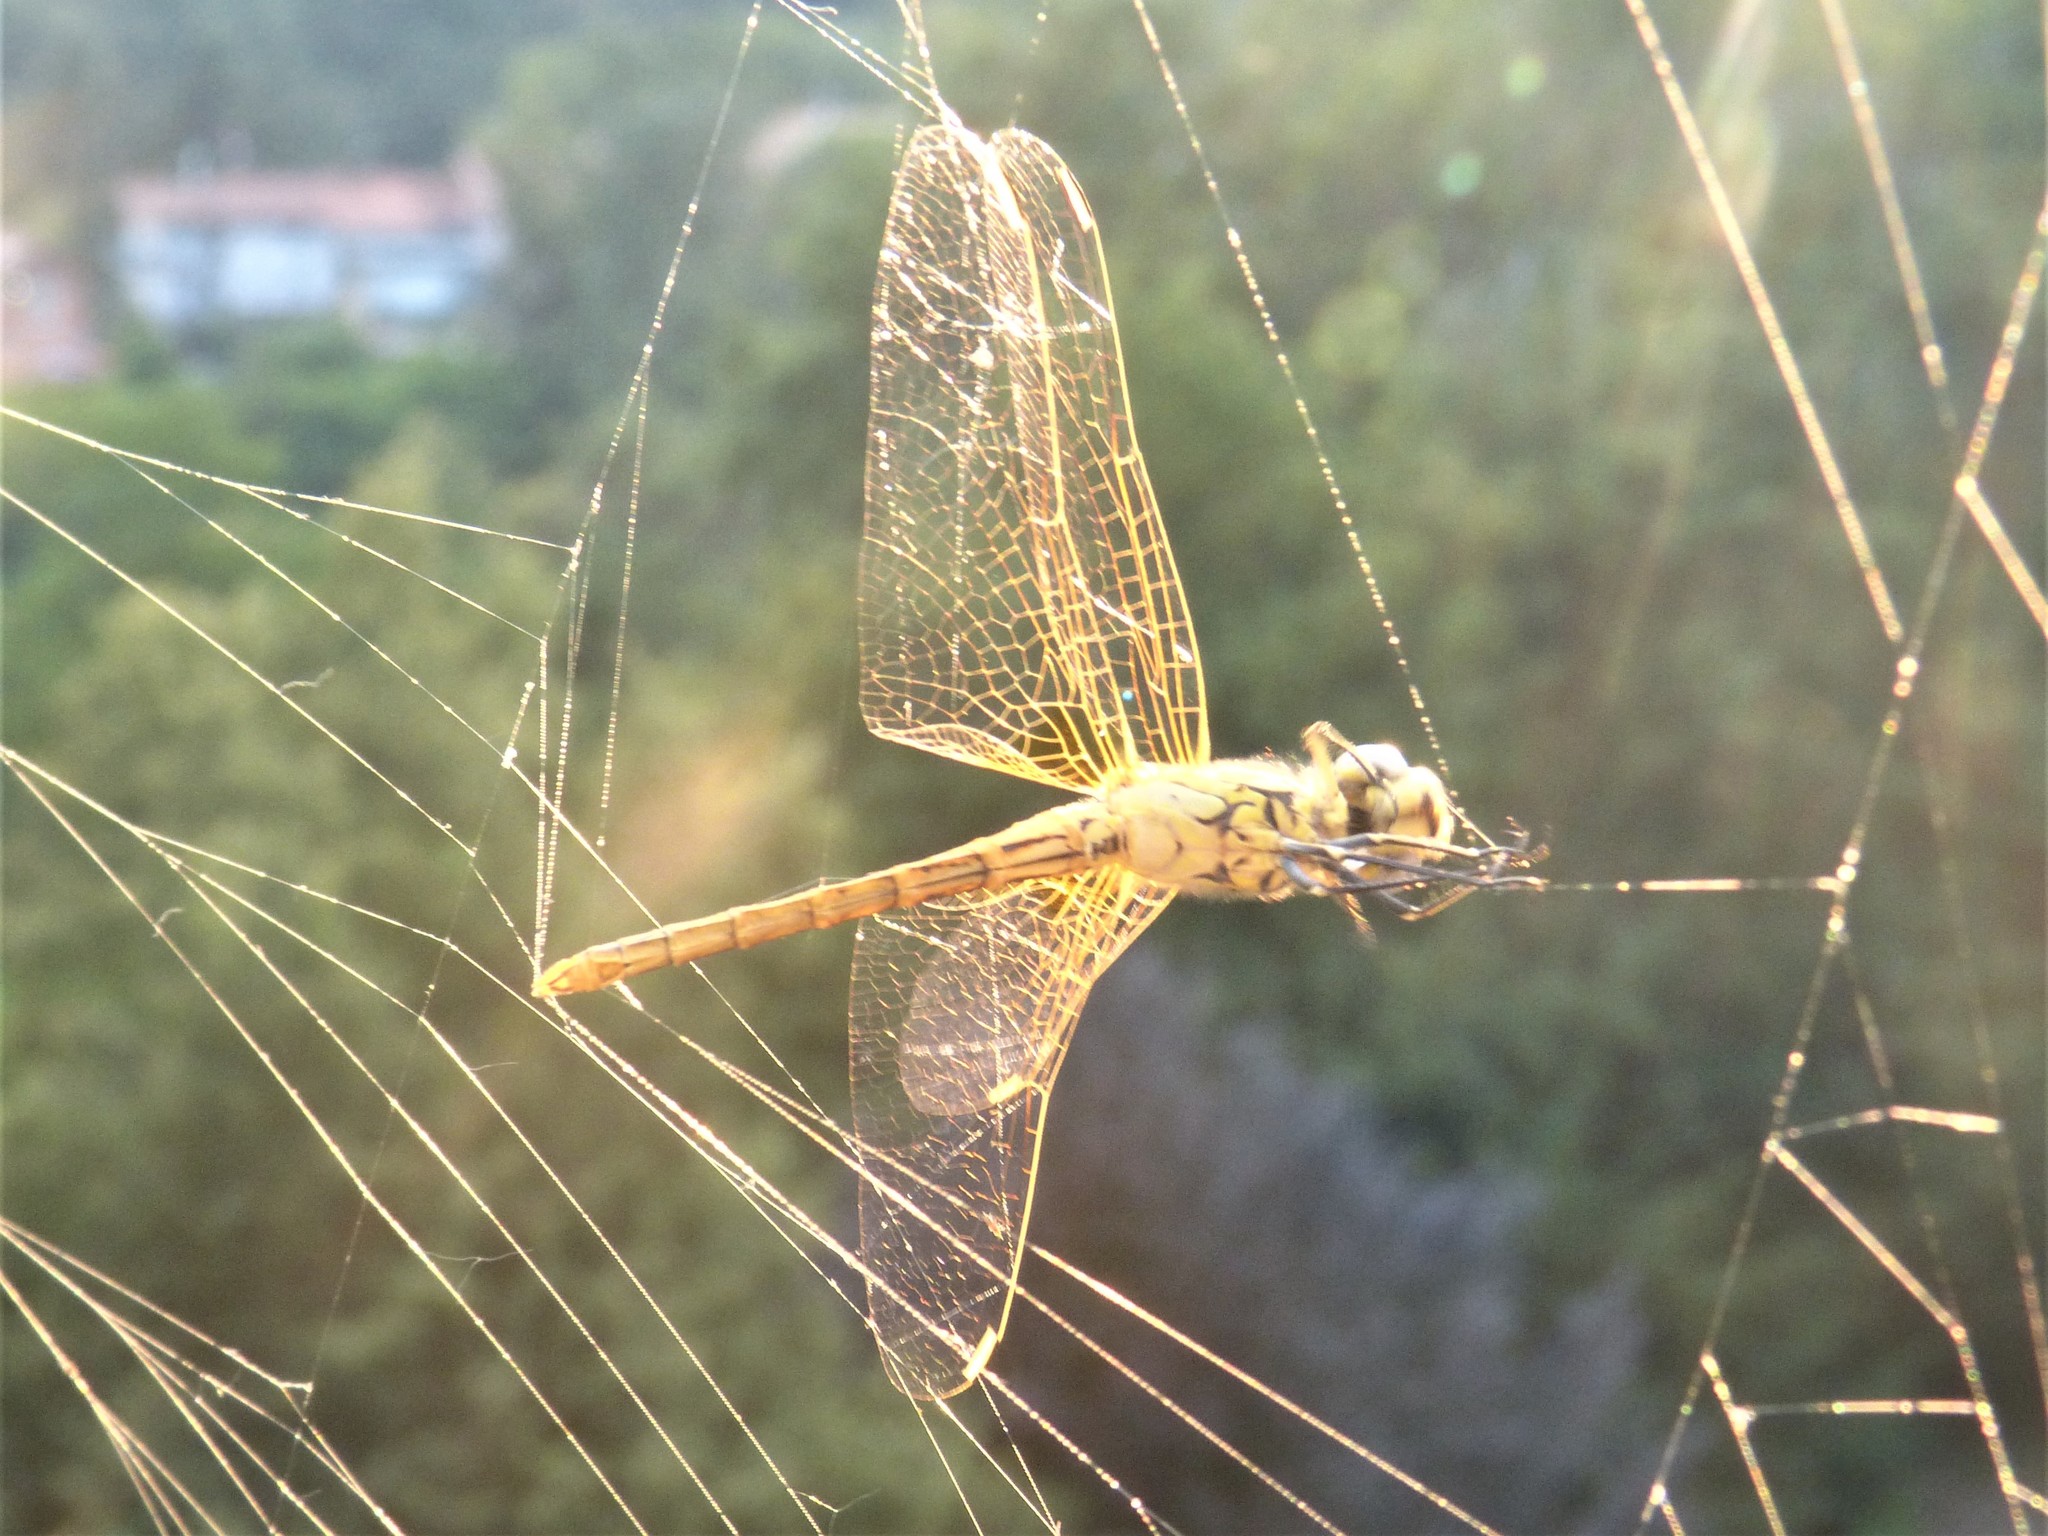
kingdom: Animalia
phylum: Arthropoda
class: Insecta
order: Odonata
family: Libellulidae
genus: Sympetrum
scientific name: Sympetrum fonscolombii
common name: Red-veined darter
